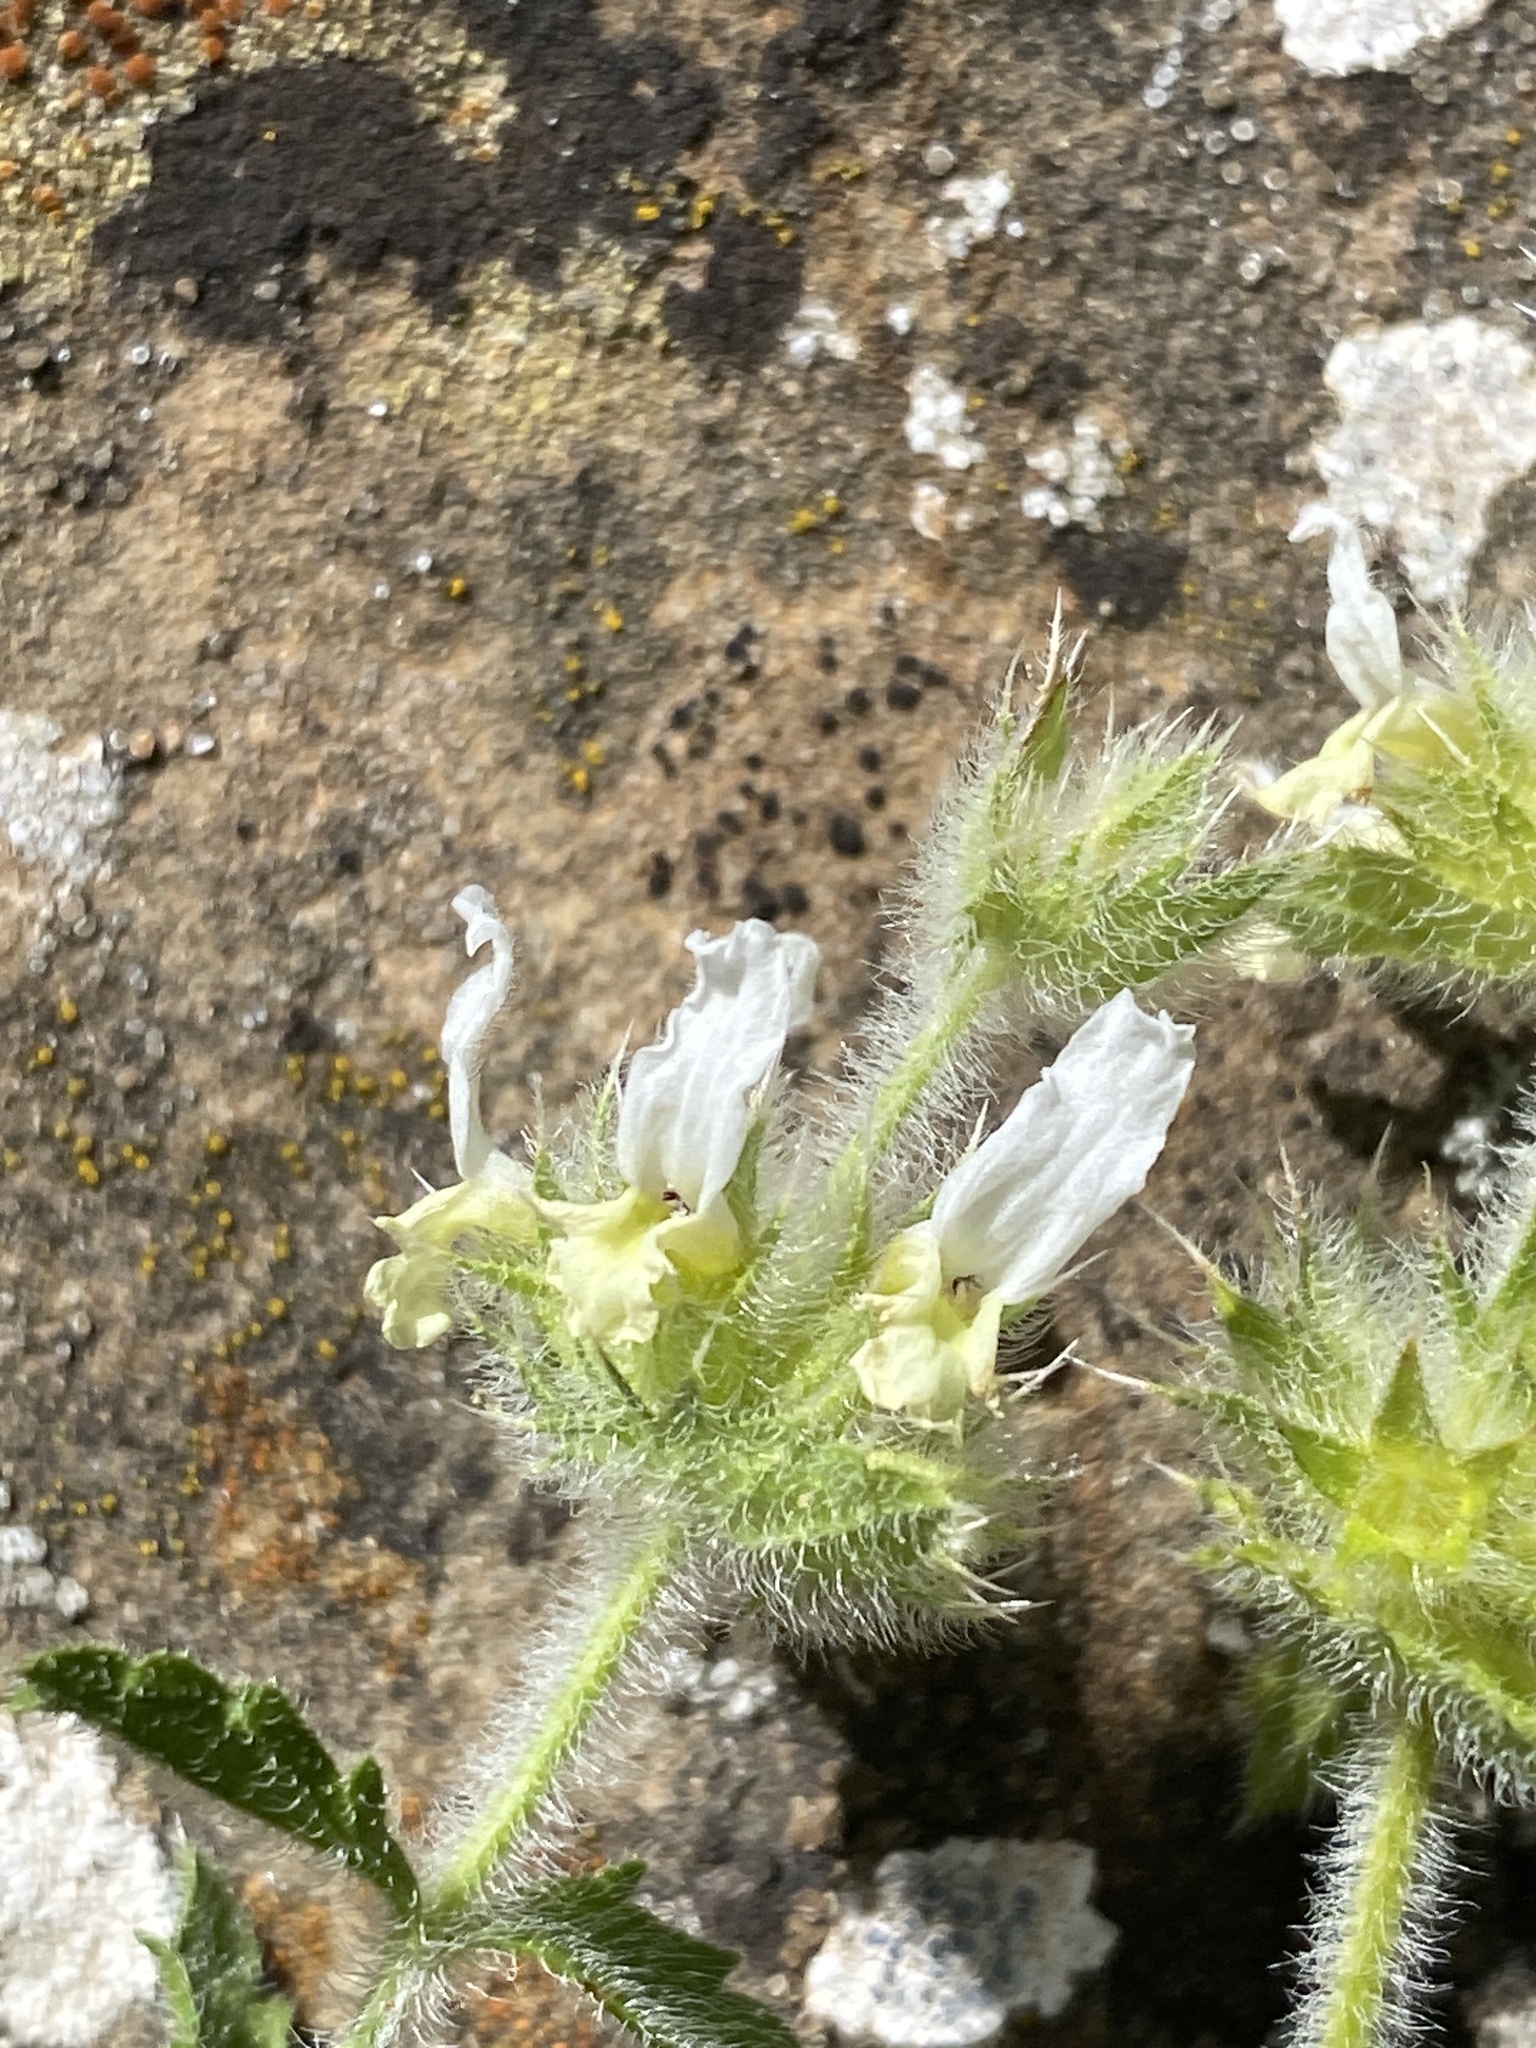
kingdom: Plantae
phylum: Tracheophyta
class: Magnoliopsida
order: Lamiales
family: Lamiaceae
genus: Sideritis
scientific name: Sideritis hirsuta
